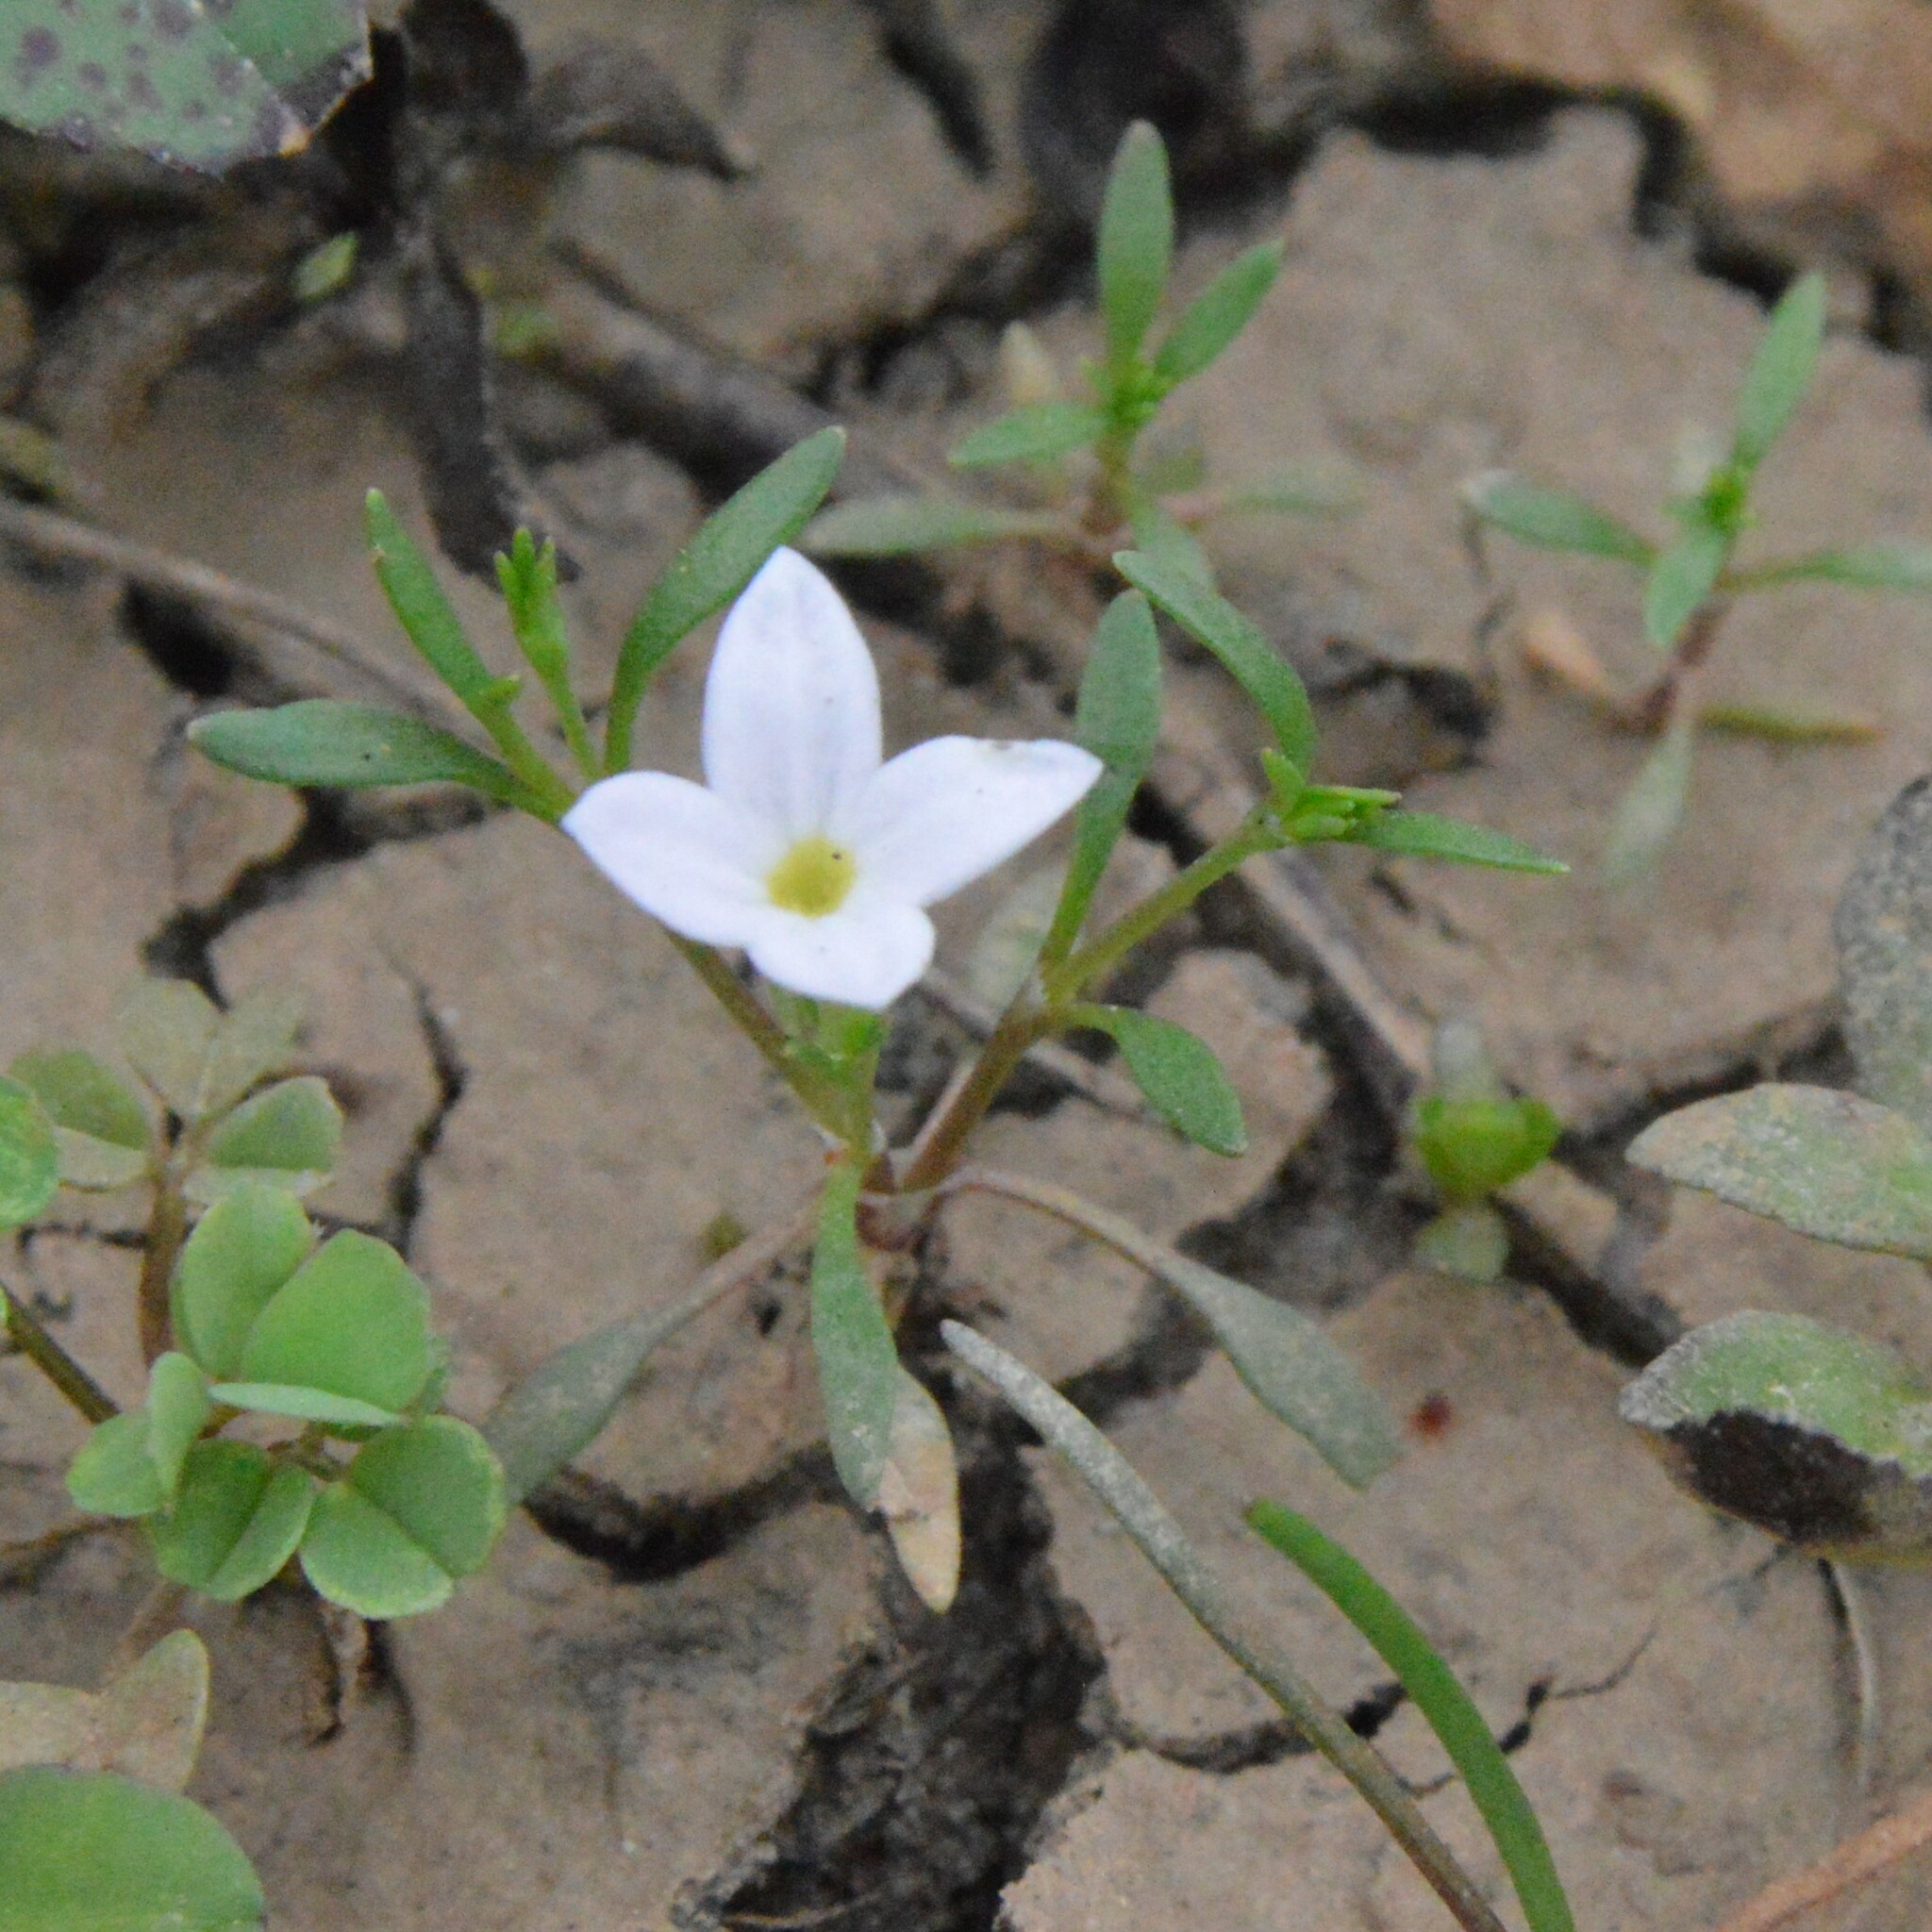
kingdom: Plantae
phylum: Tracheophyta
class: Magnoliopsida
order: Gentianales
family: Rubiaceae
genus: Houstonia
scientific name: Houstonia rosea
